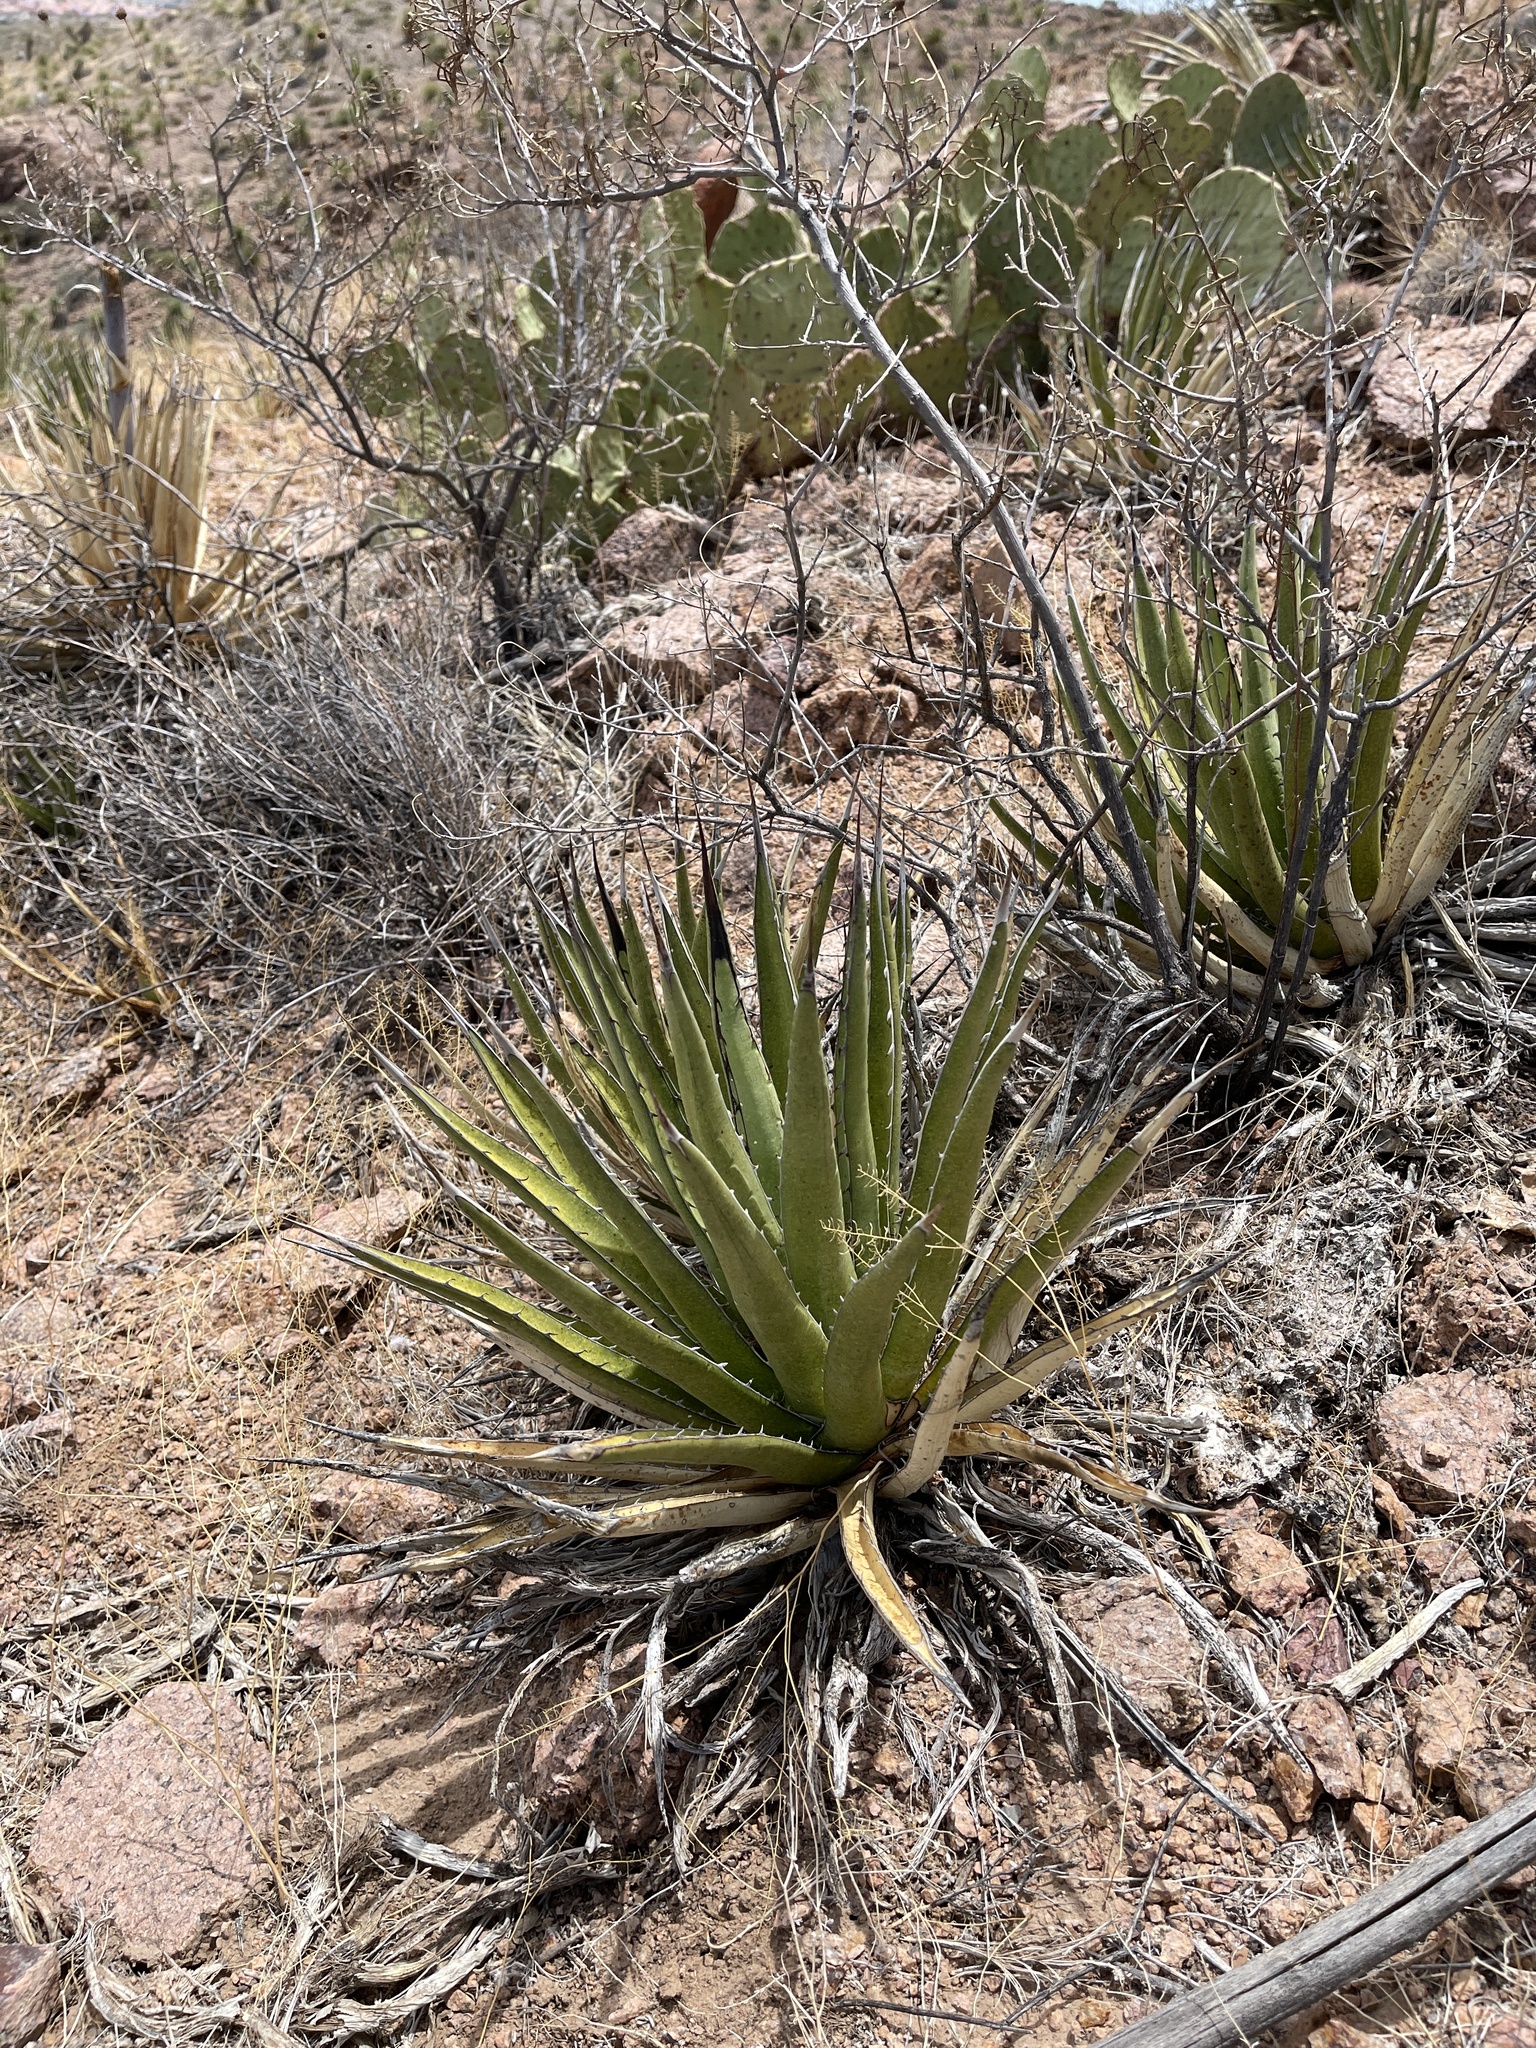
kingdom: Plantae
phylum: Tracheophyta
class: Liliopsida
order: Asparagales
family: Asparagaceae
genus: Agave
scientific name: Agave lechuguilla
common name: Lecheguilla agave
